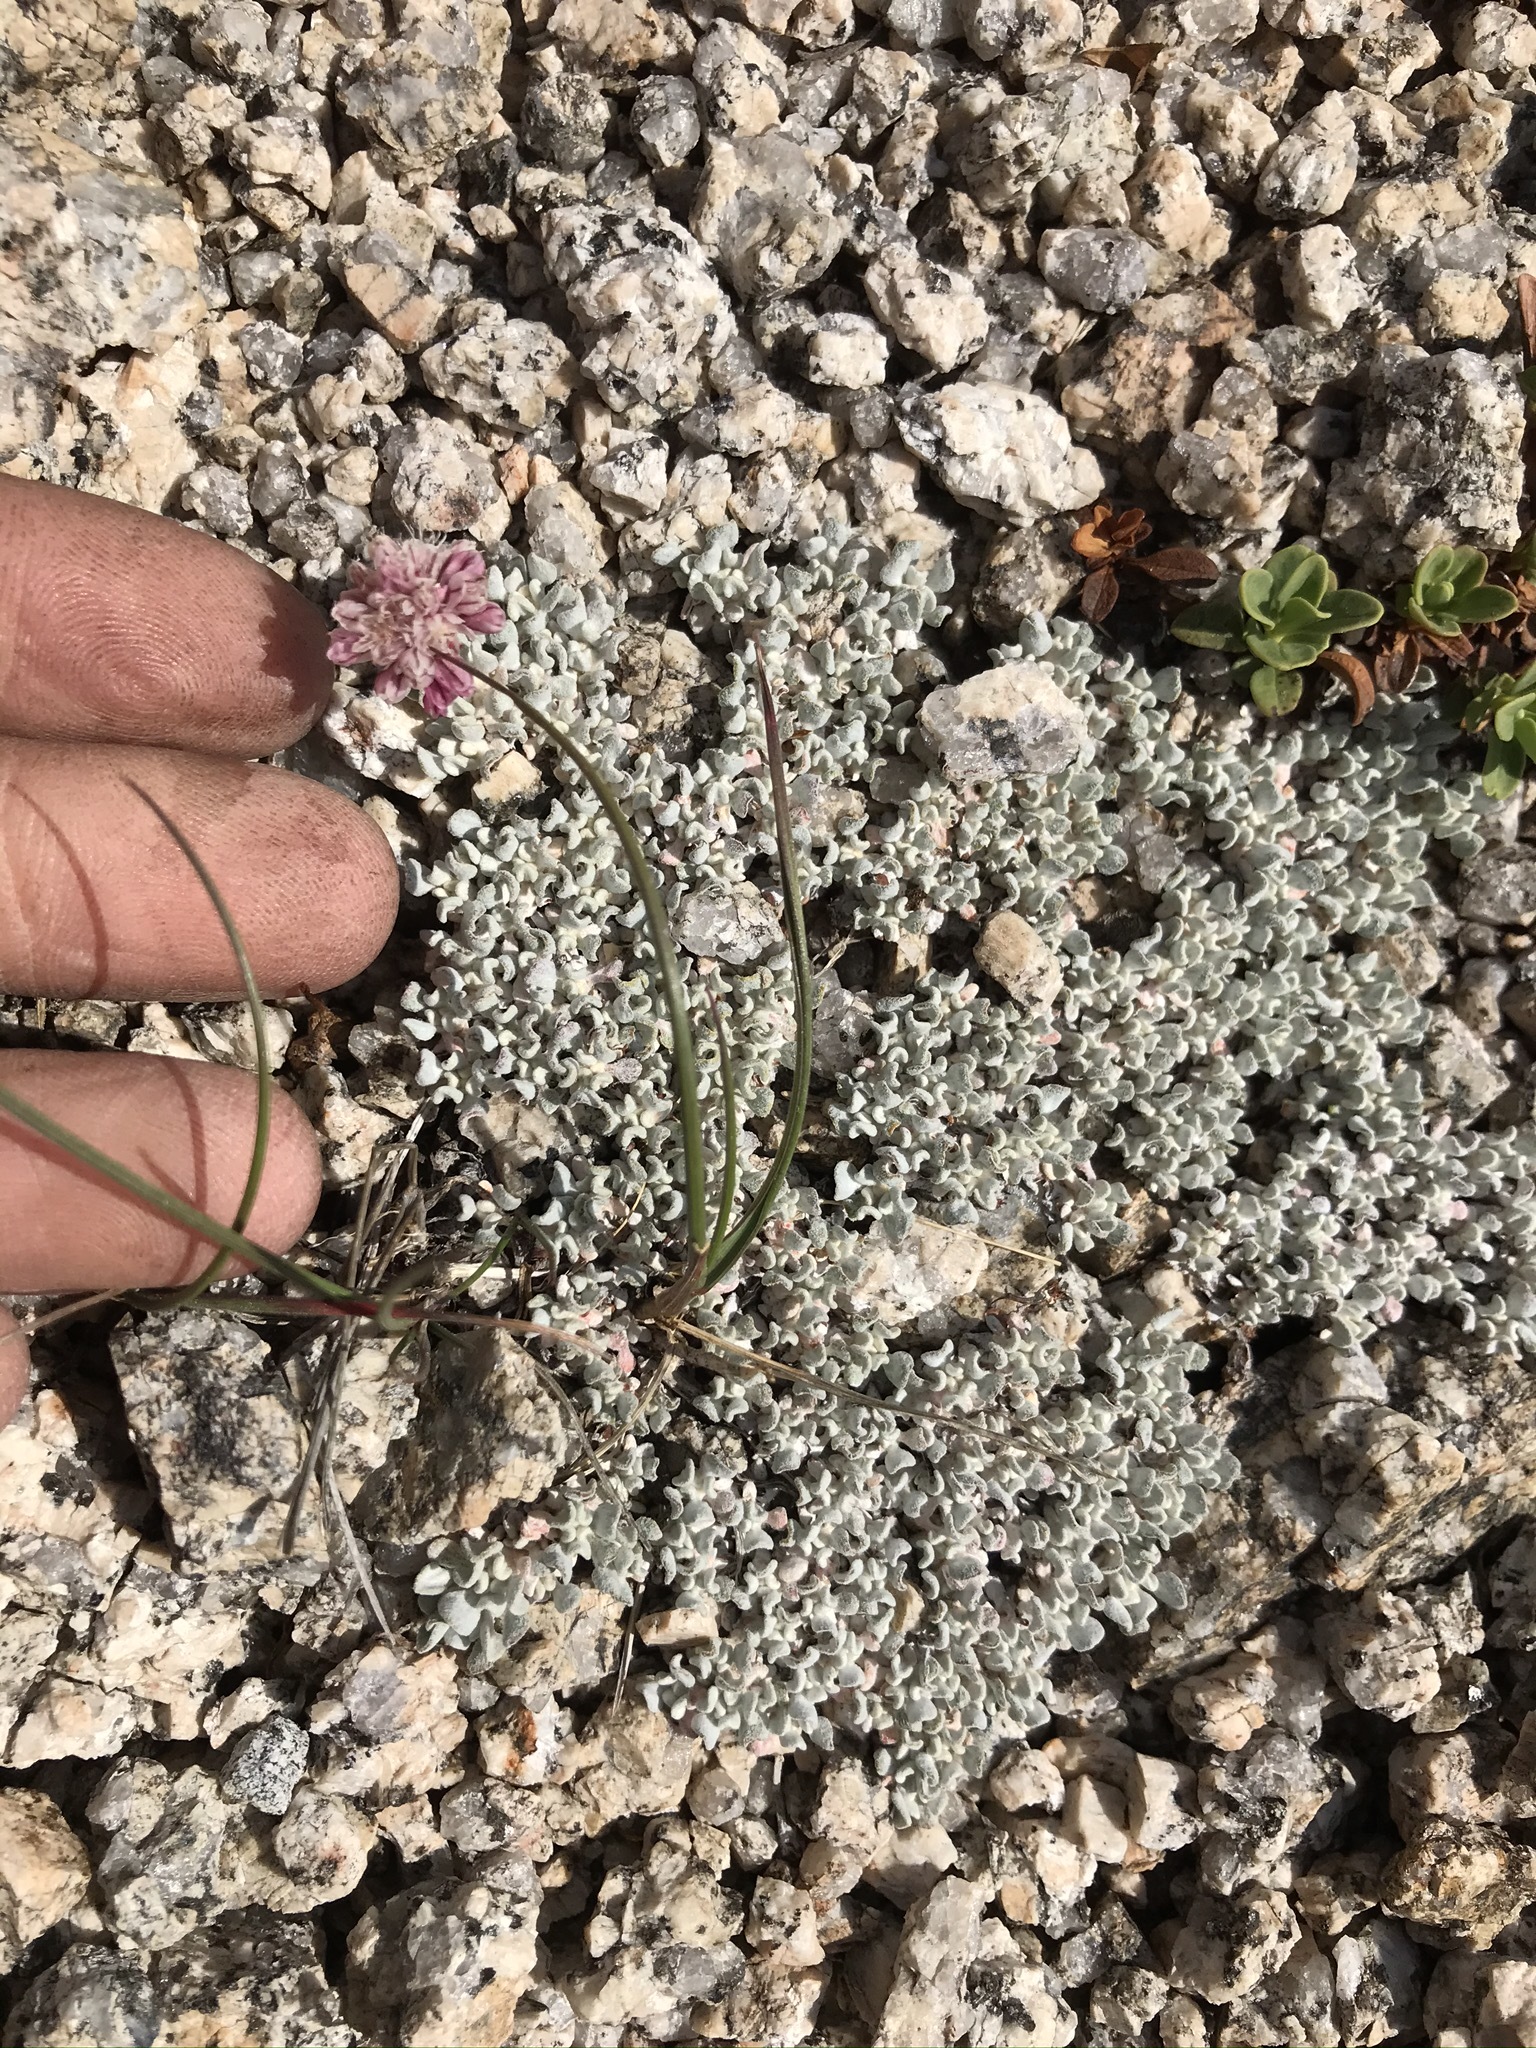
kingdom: Plantae
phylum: Tracheophyta
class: Magnoliopsida
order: Caryophyllales
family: Polygonaceae
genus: Eriogonum
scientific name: Eriogonum ovalifolium
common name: Cushion buckwheat
